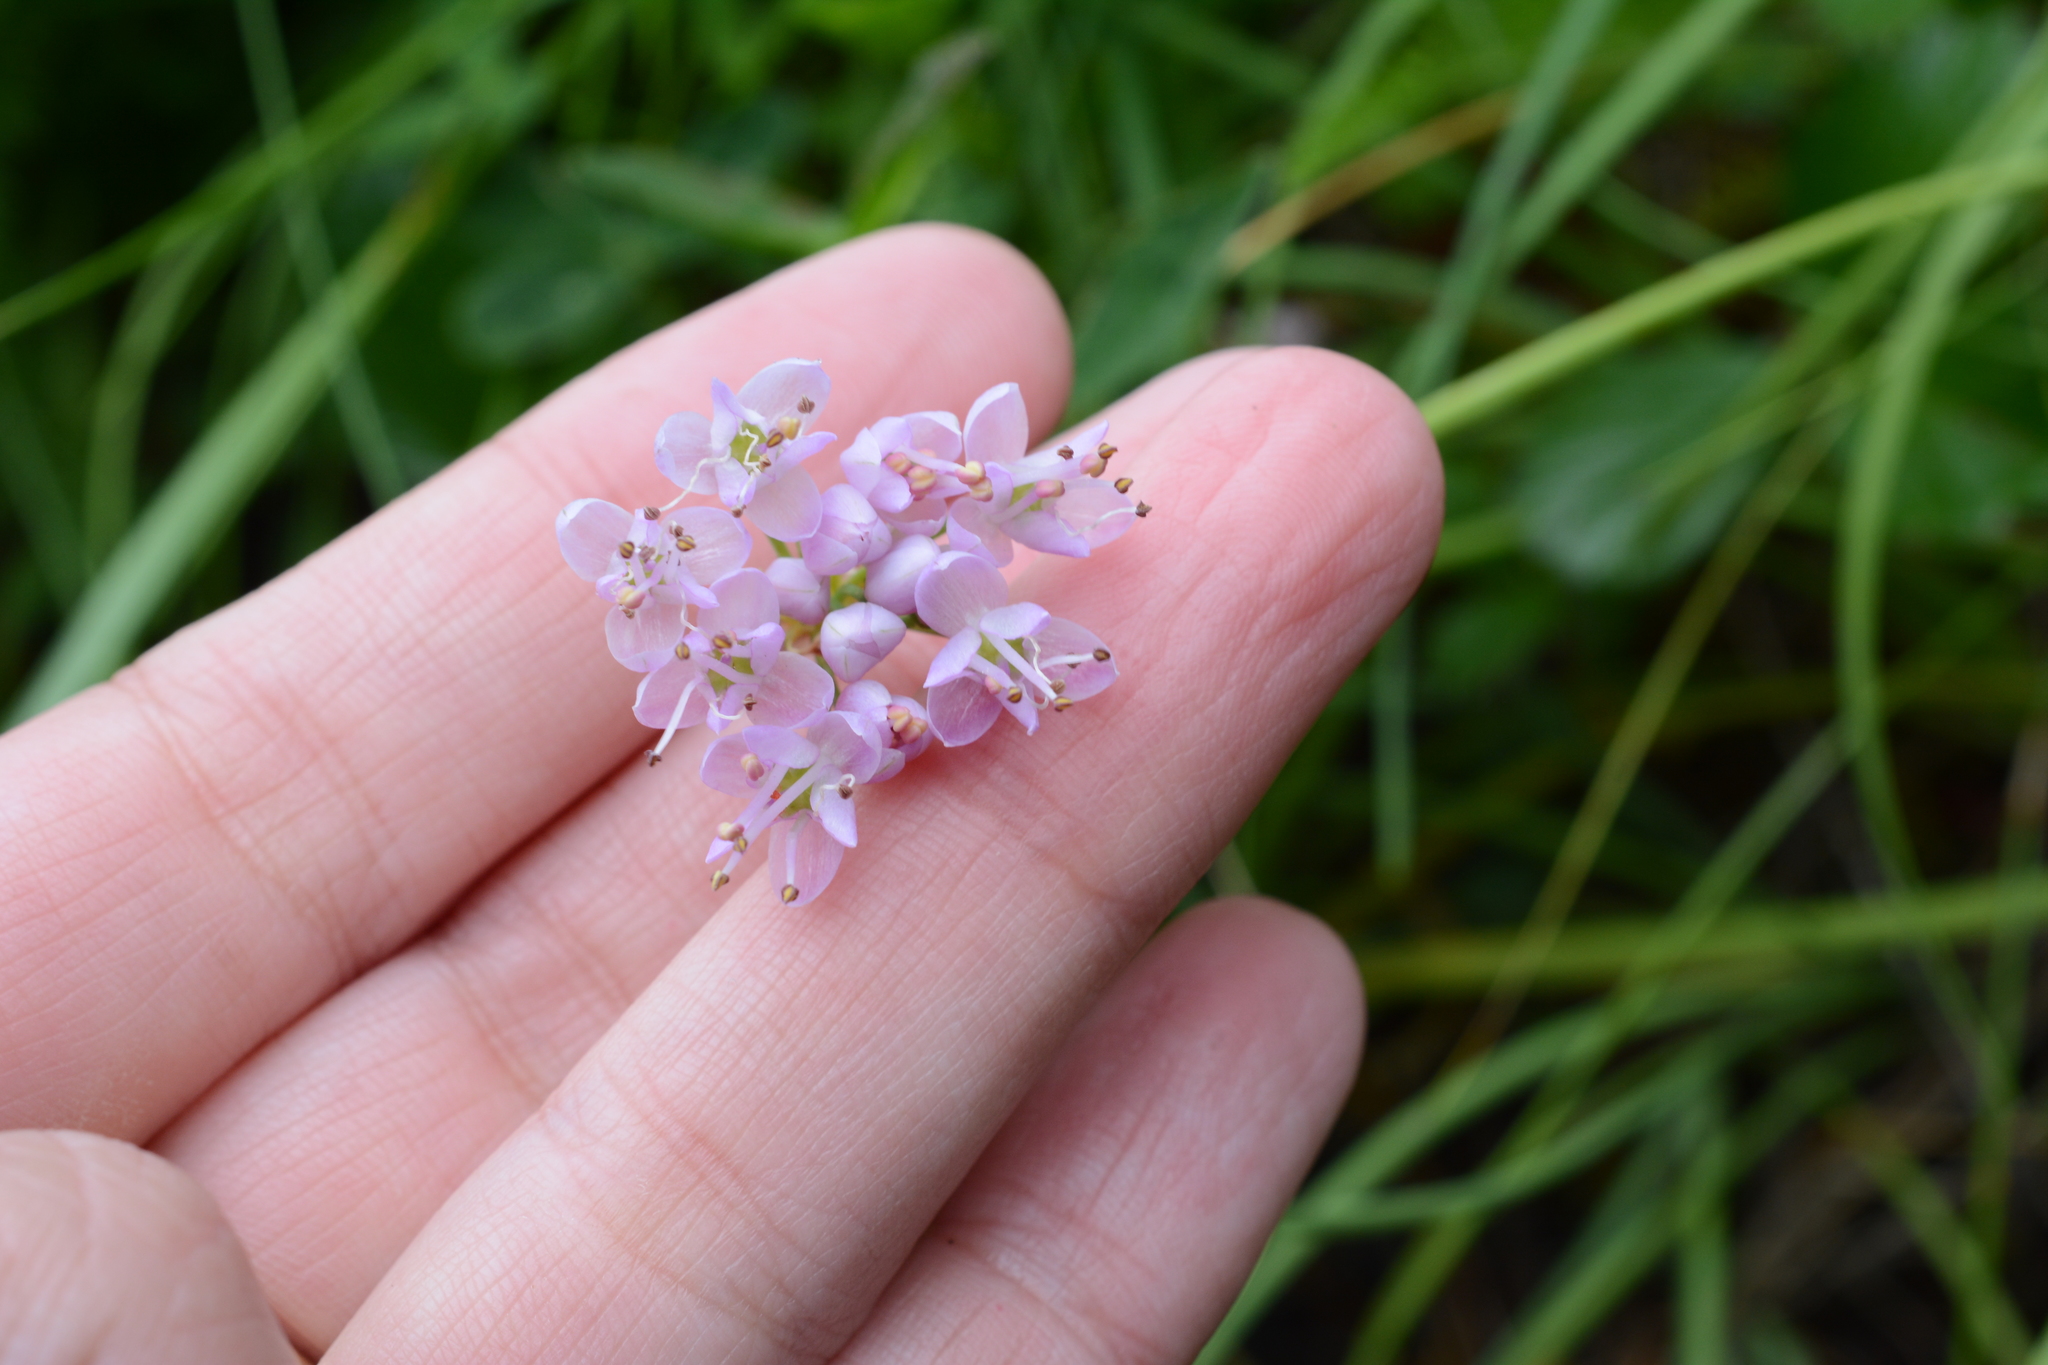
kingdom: Plantae
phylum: Tracheophyta
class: Liliopsida
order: Asparagales
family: Amaryllidaceae
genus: Allium
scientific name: Allium cernuum
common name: Nodding onion
